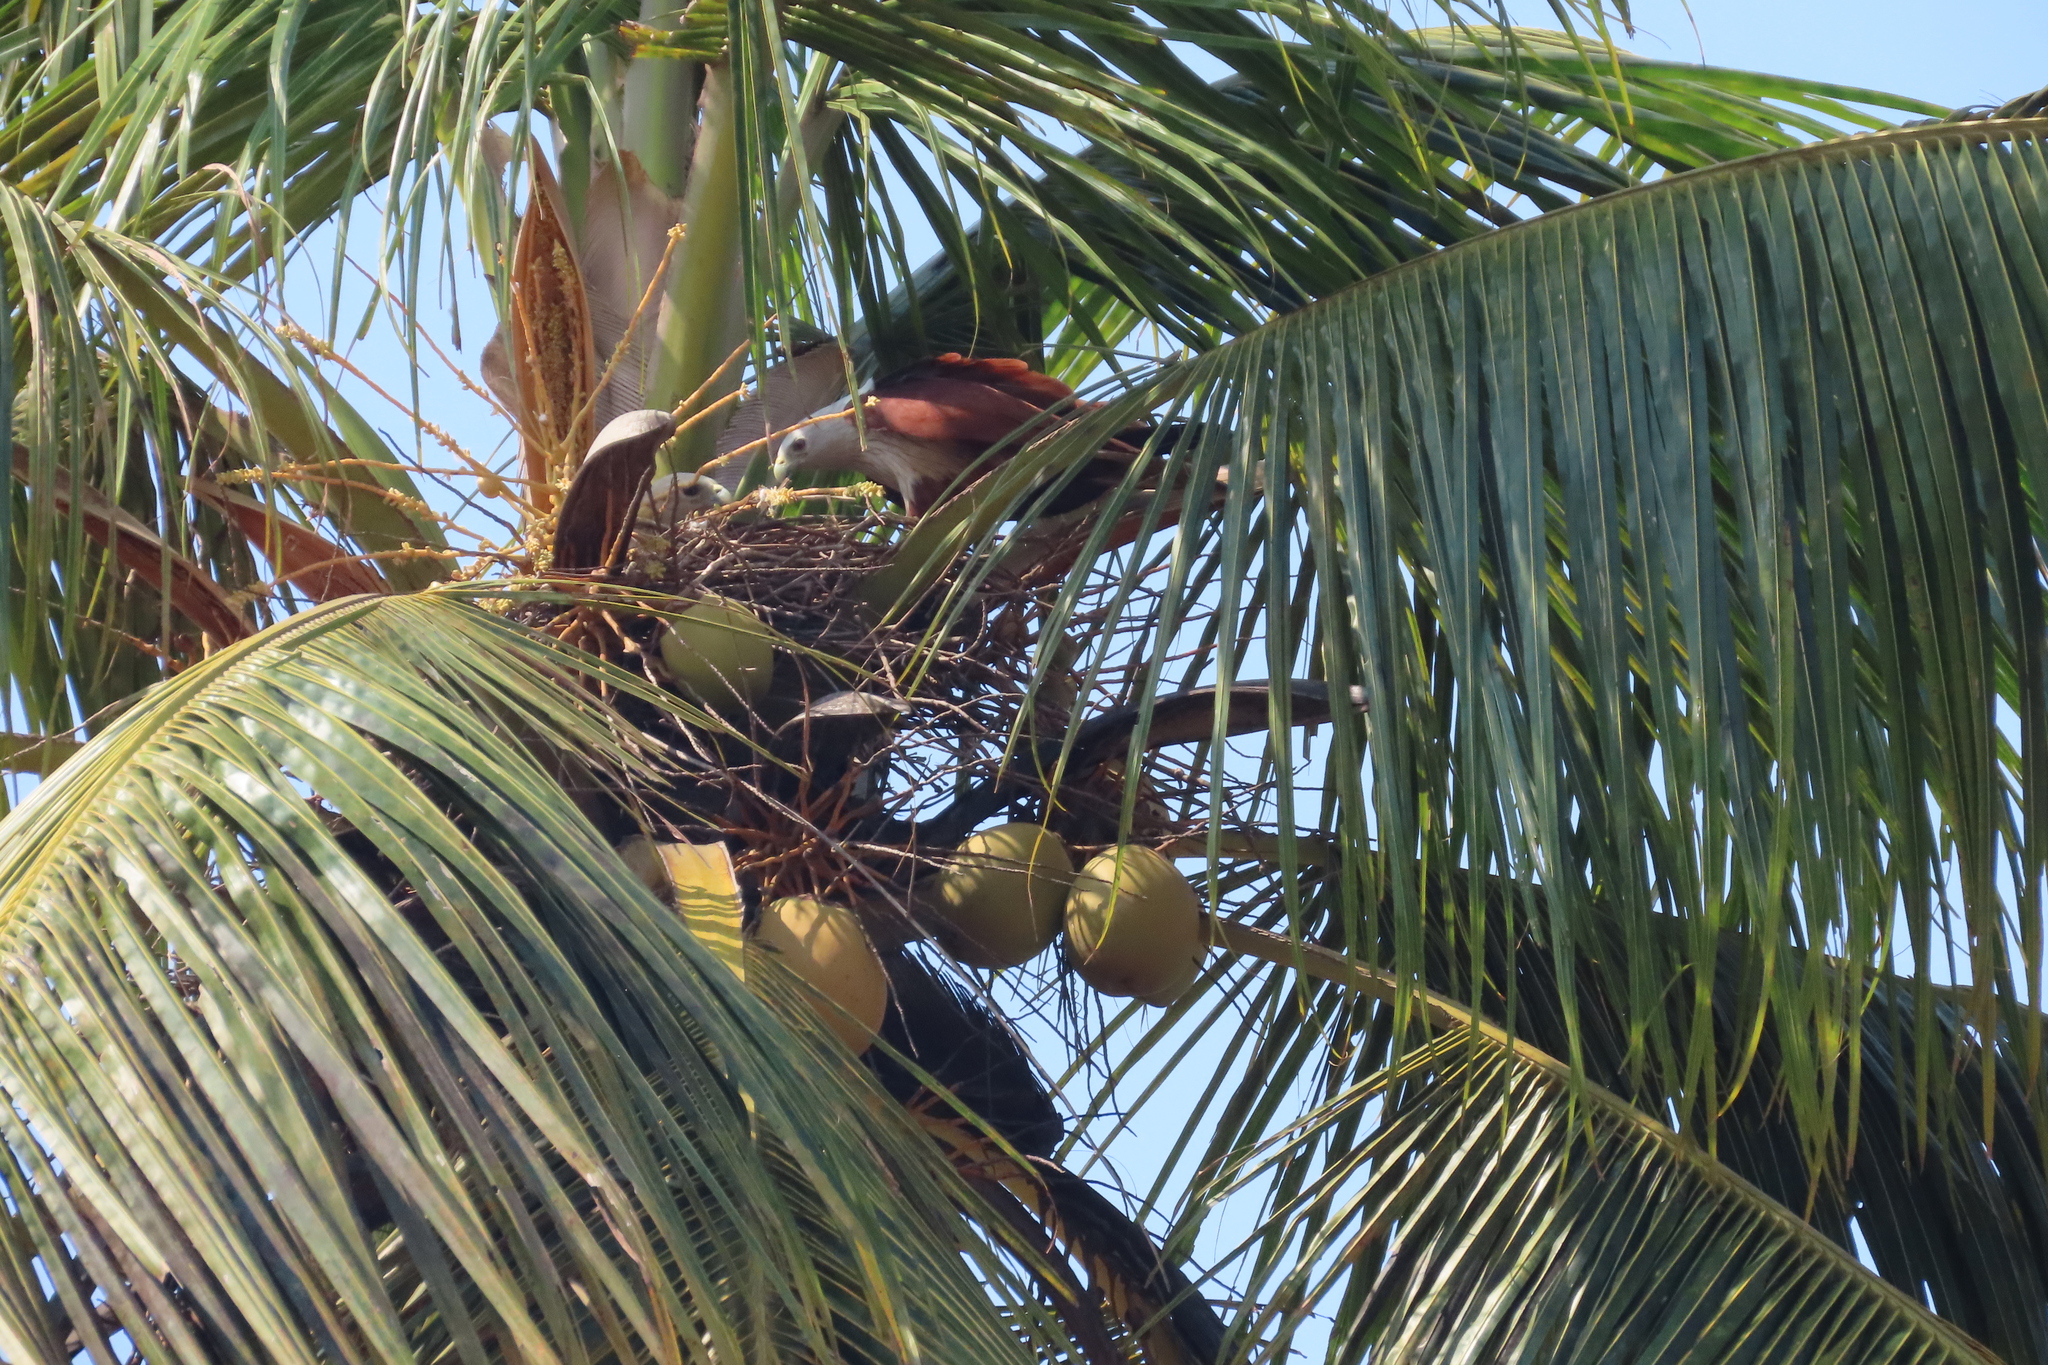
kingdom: Animalia
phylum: Chordata
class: Aves
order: Accipitriformes
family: Accipitridae
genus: Haliastur
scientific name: Haliastur indus
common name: Brahminy kite
